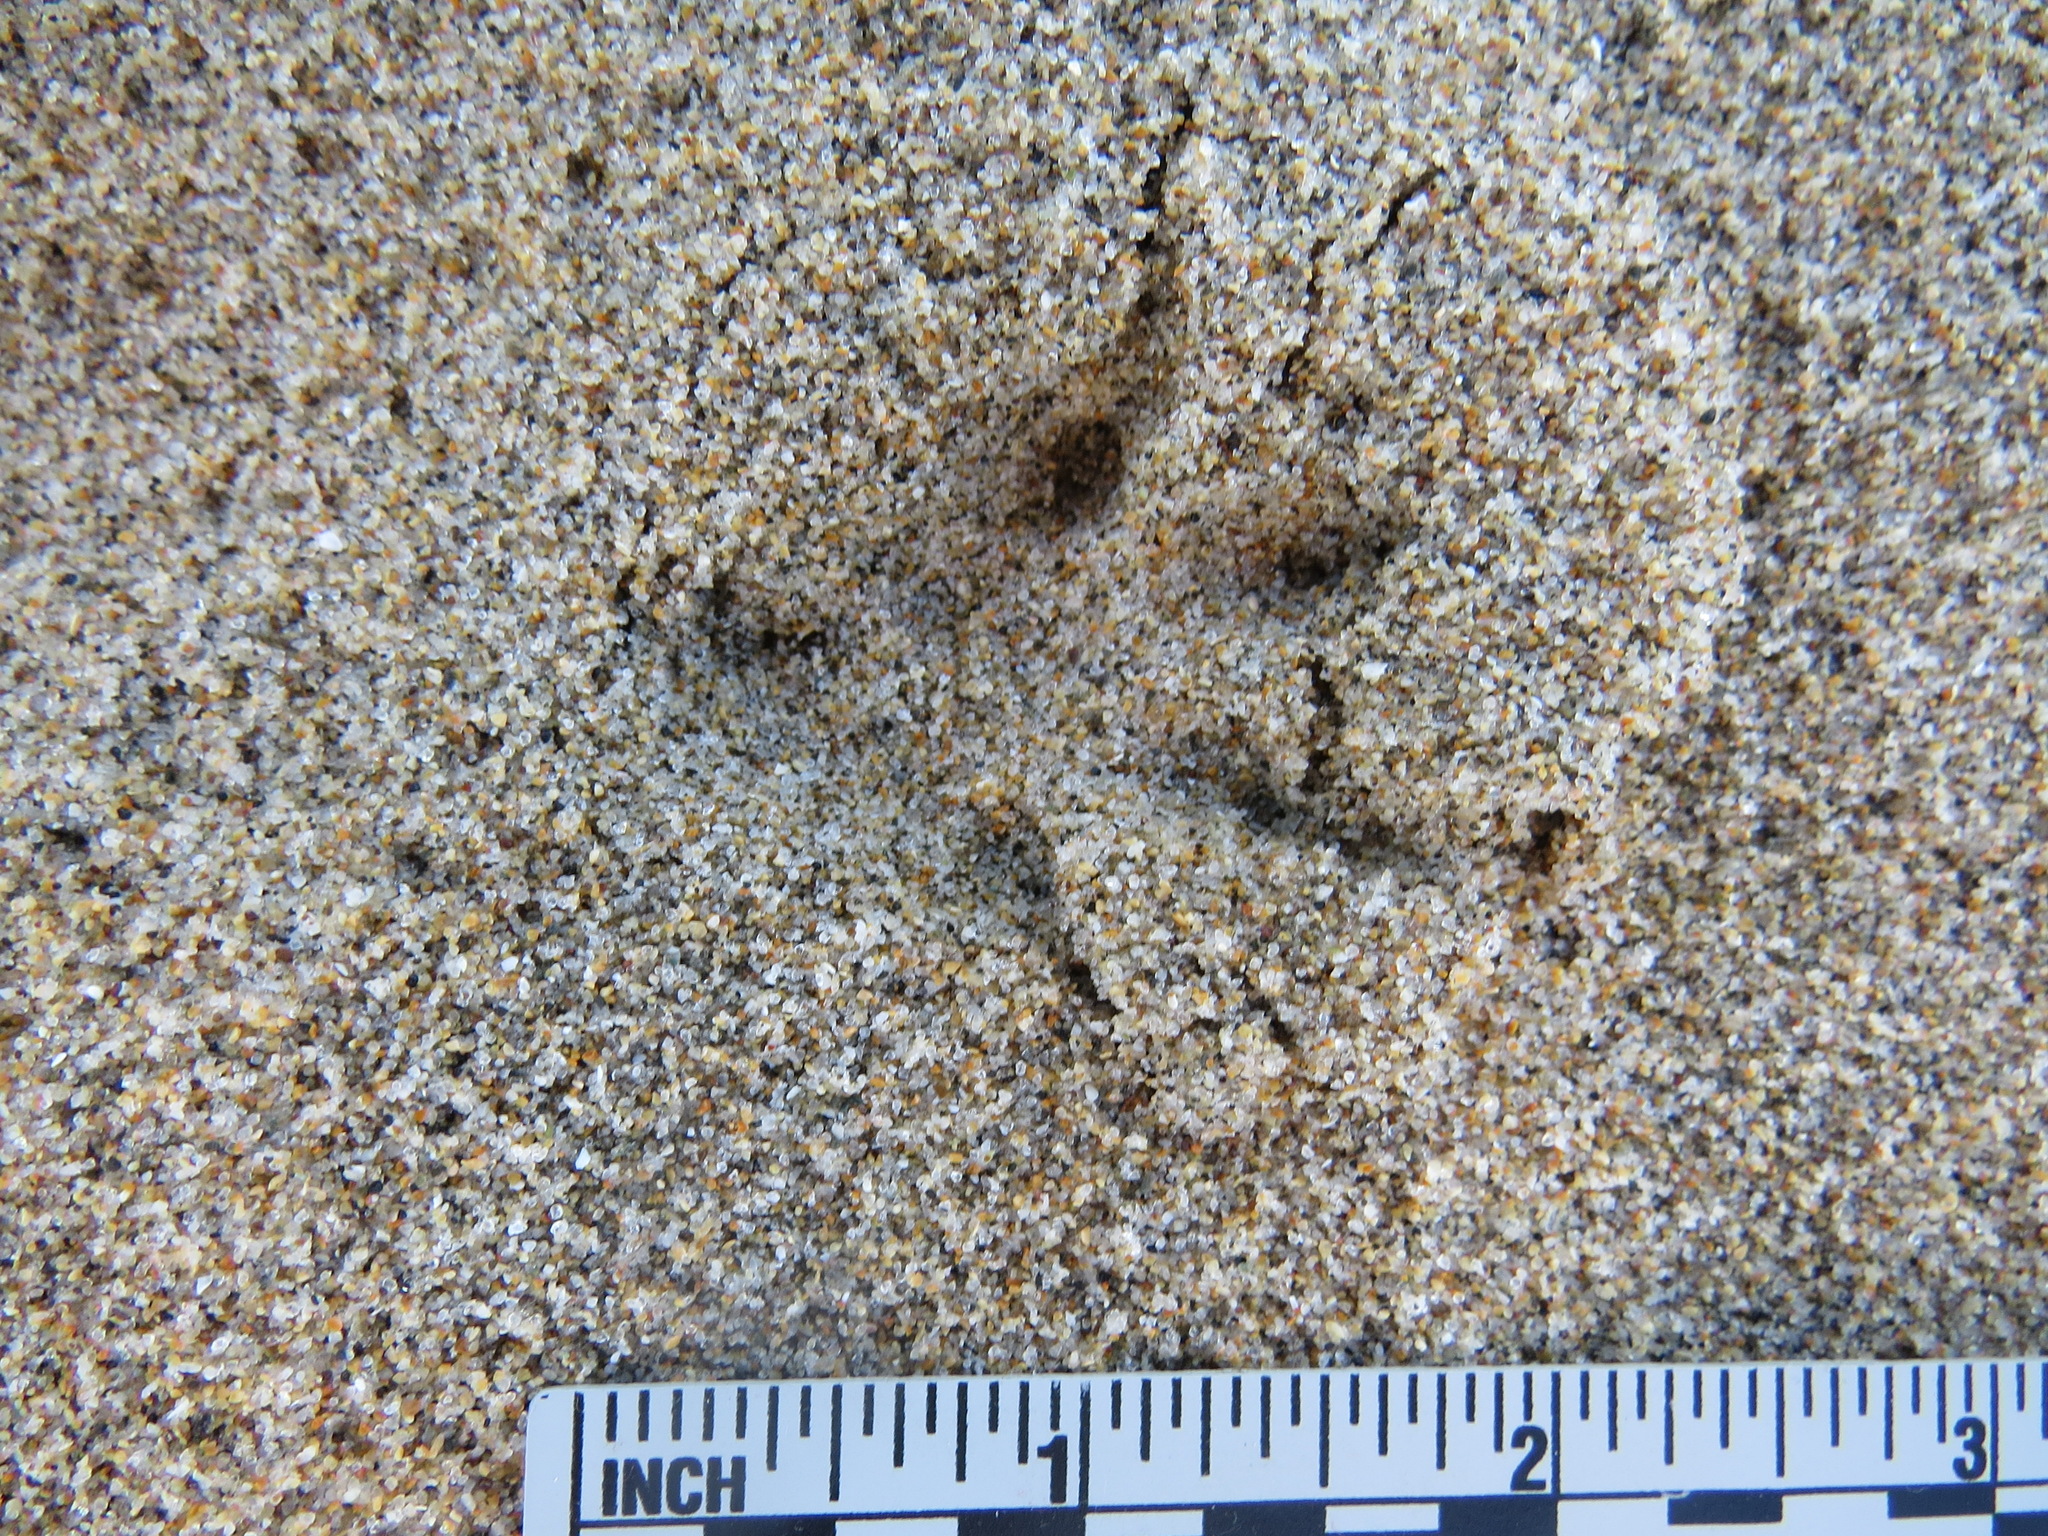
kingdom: Animalia
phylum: Chordata
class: Mammalia
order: Lagomorpha
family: Leporidae
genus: Sylvilagus
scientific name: Sylvilagus bachmani
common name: Brush rabbit
